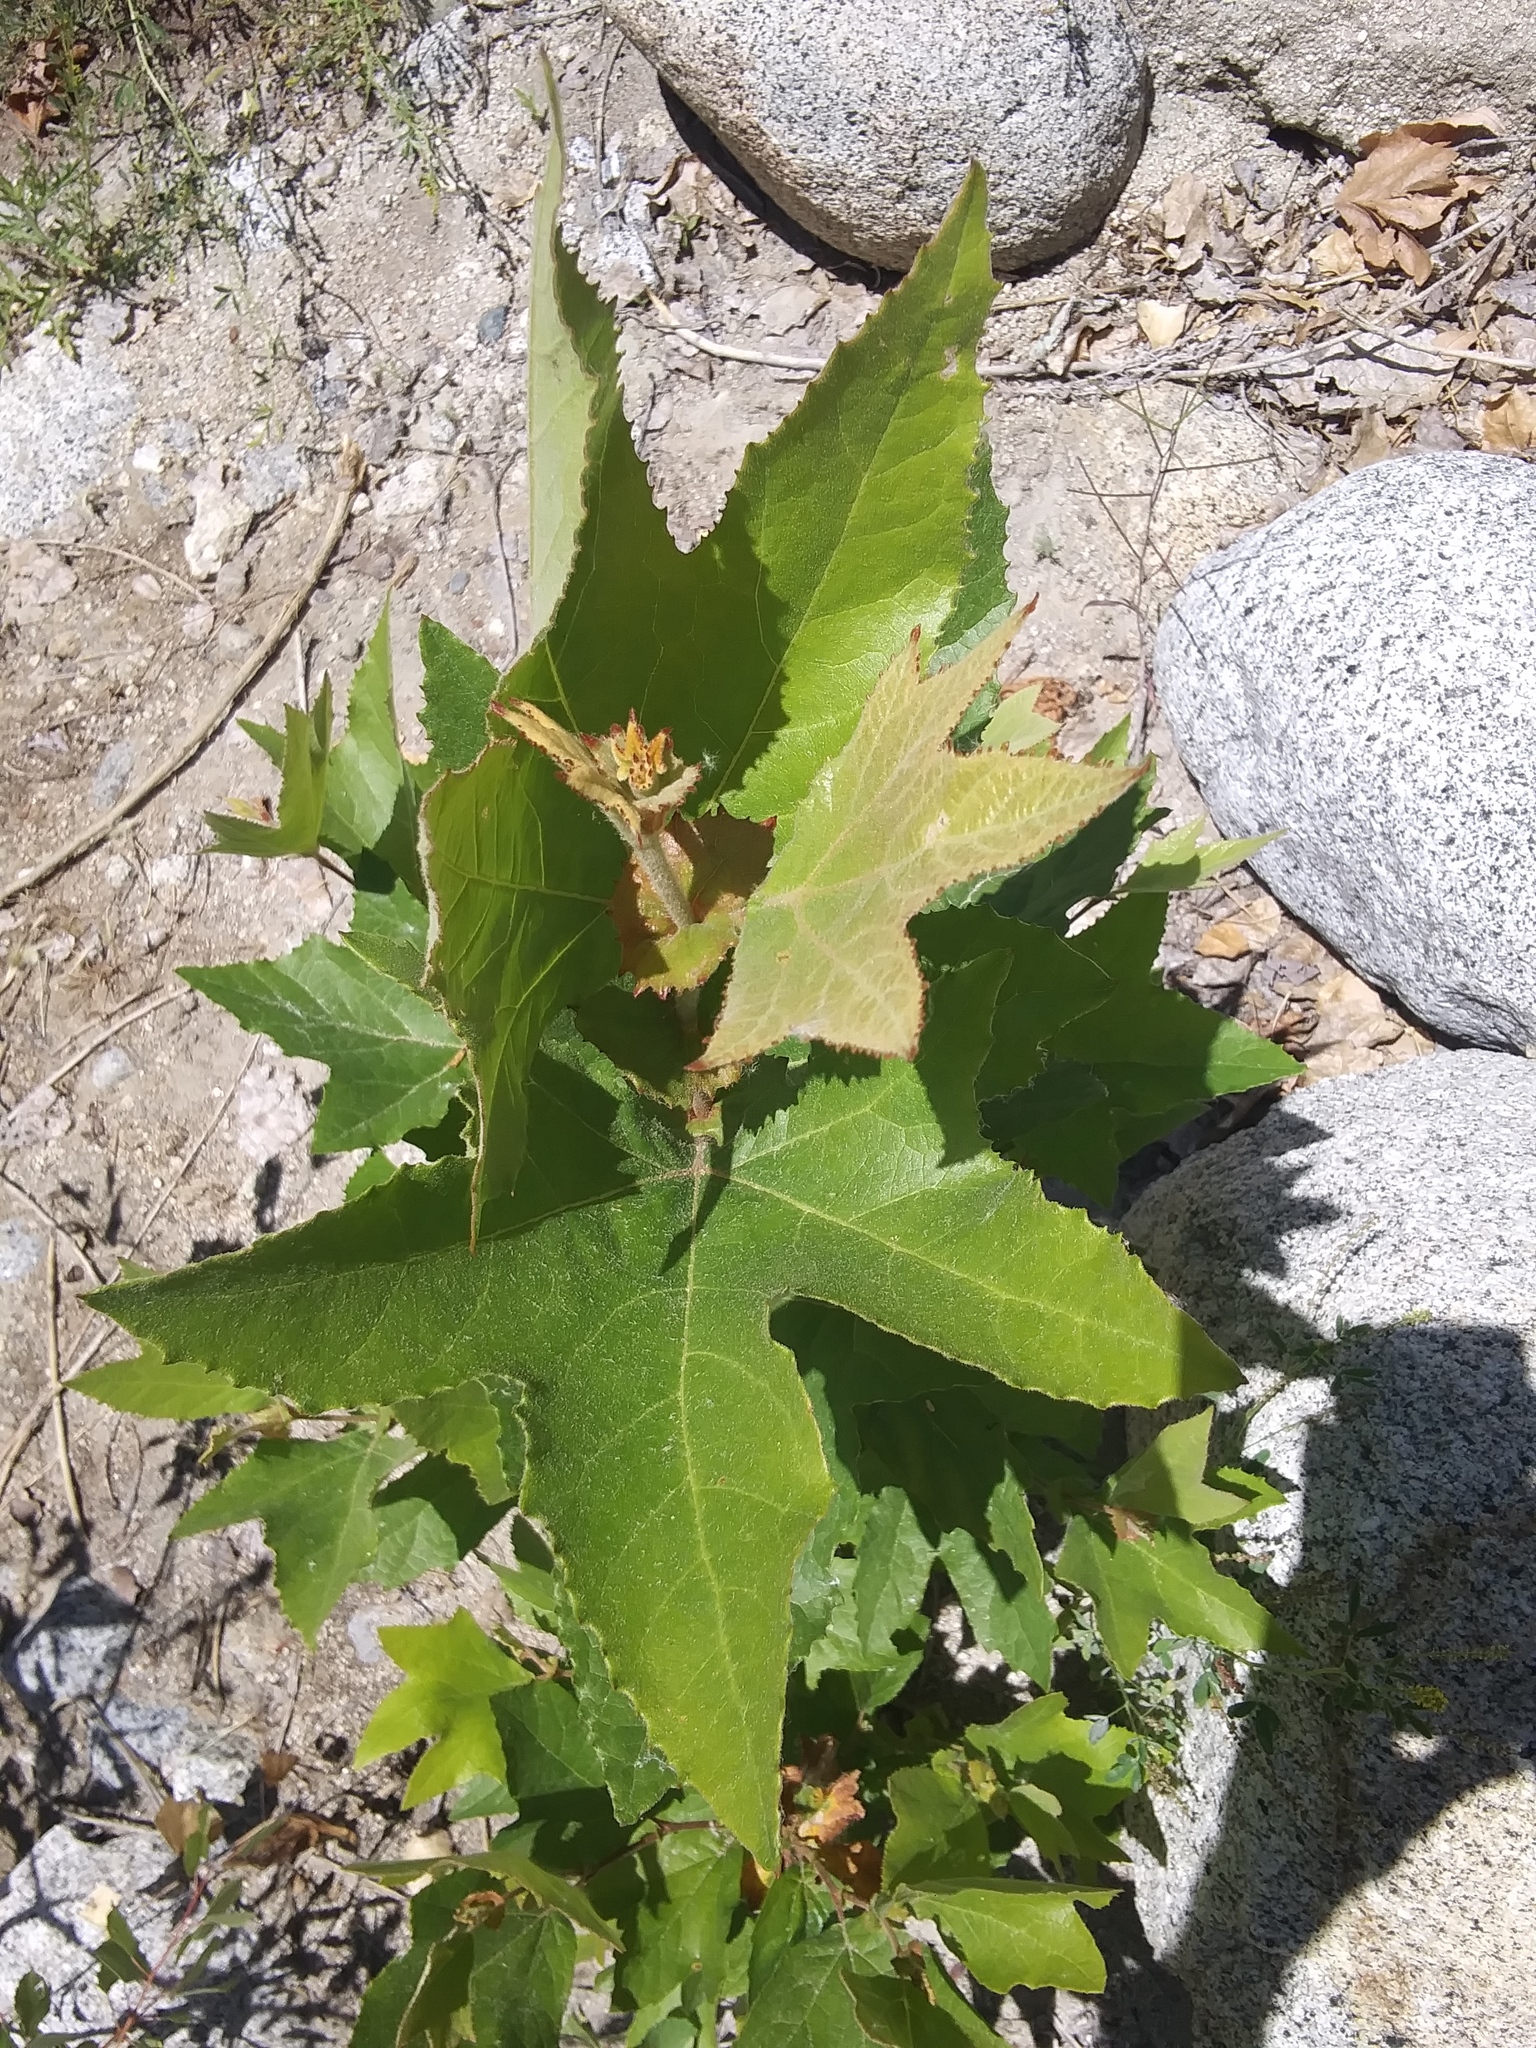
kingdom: Plantae
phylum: Tracheophyta
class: Magnoliopsida
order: Proteales
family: Platanaceae
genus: Platanus
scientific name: Platanus racemosa
